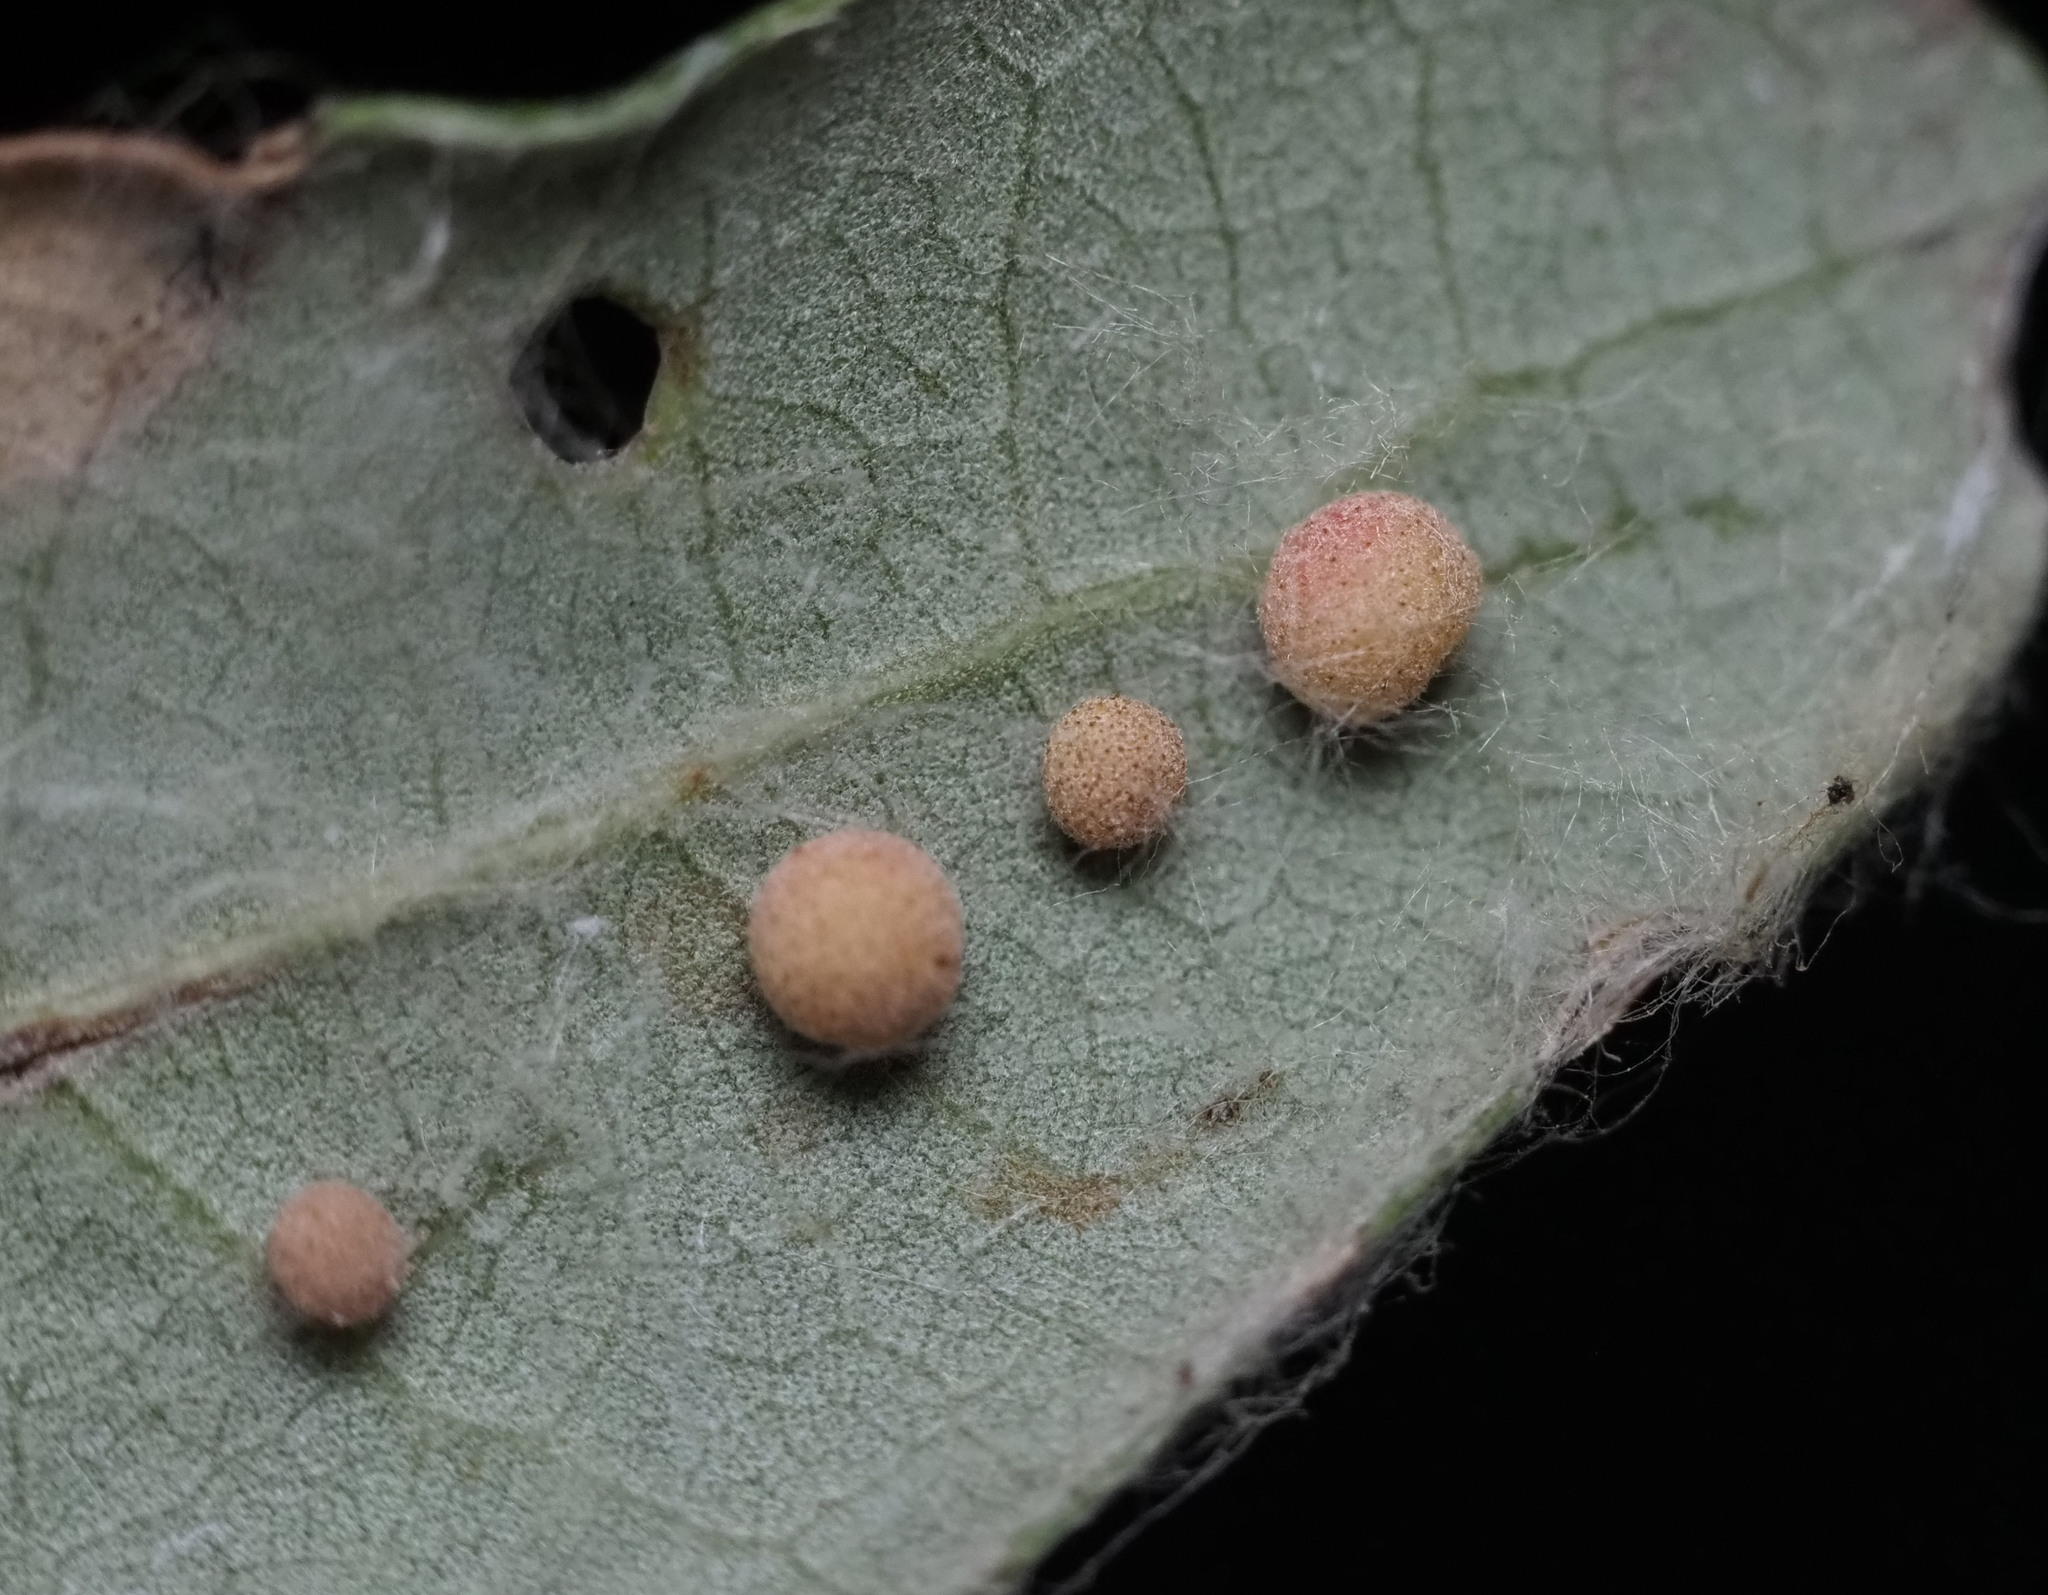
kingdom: Animalia
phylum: Arthropoda
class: Insecta
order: Hymenoptera
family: Cynipidae
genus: Belonocnema
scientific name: Belonocnema kinseyi
